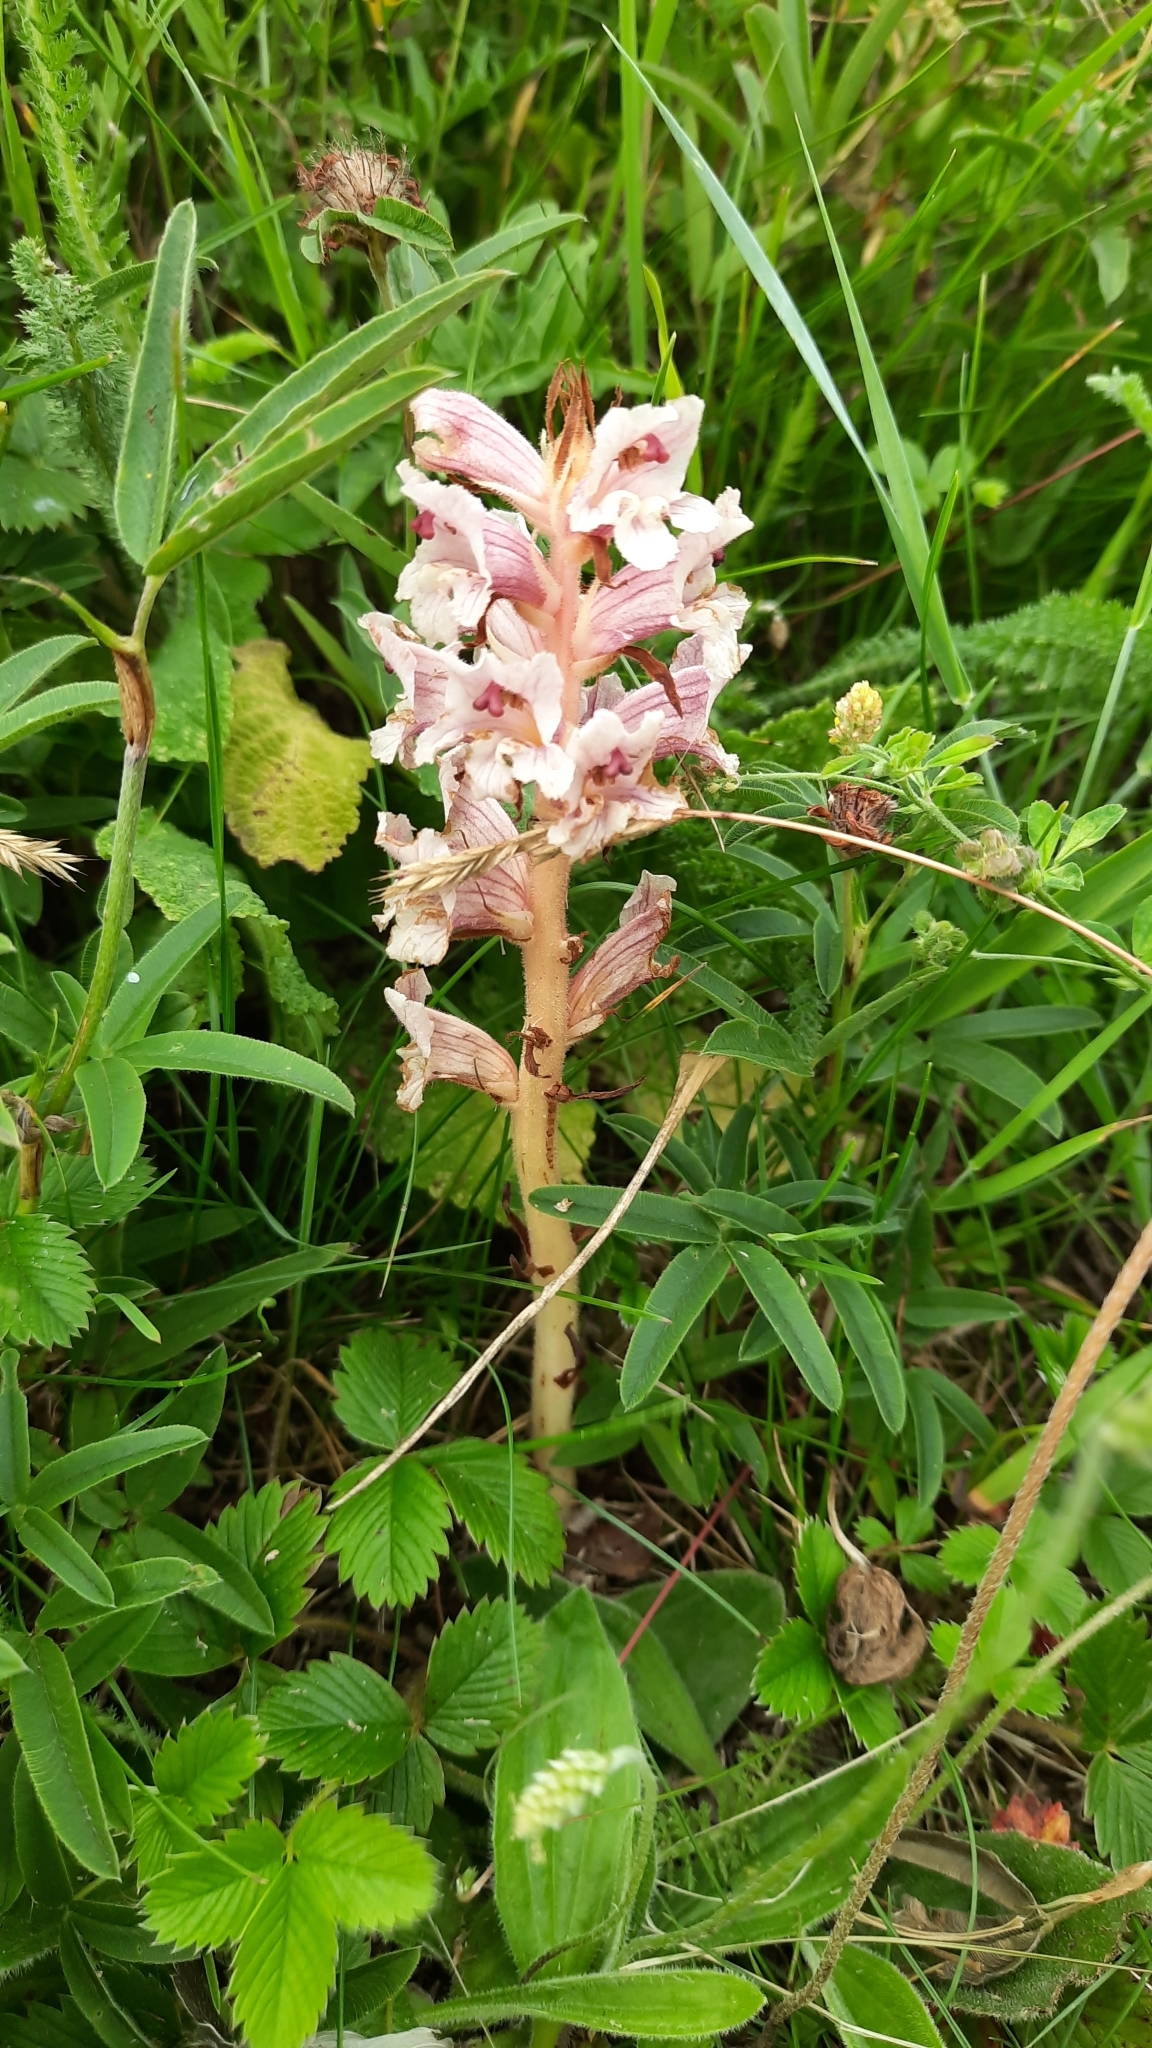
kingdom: Plantae
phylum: Tracheophyta
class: Magnoliopsida
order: Lamiales
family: Orobanchaceae
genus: Orobanche
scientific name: Orobanche alba
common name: Thyme broomrape
